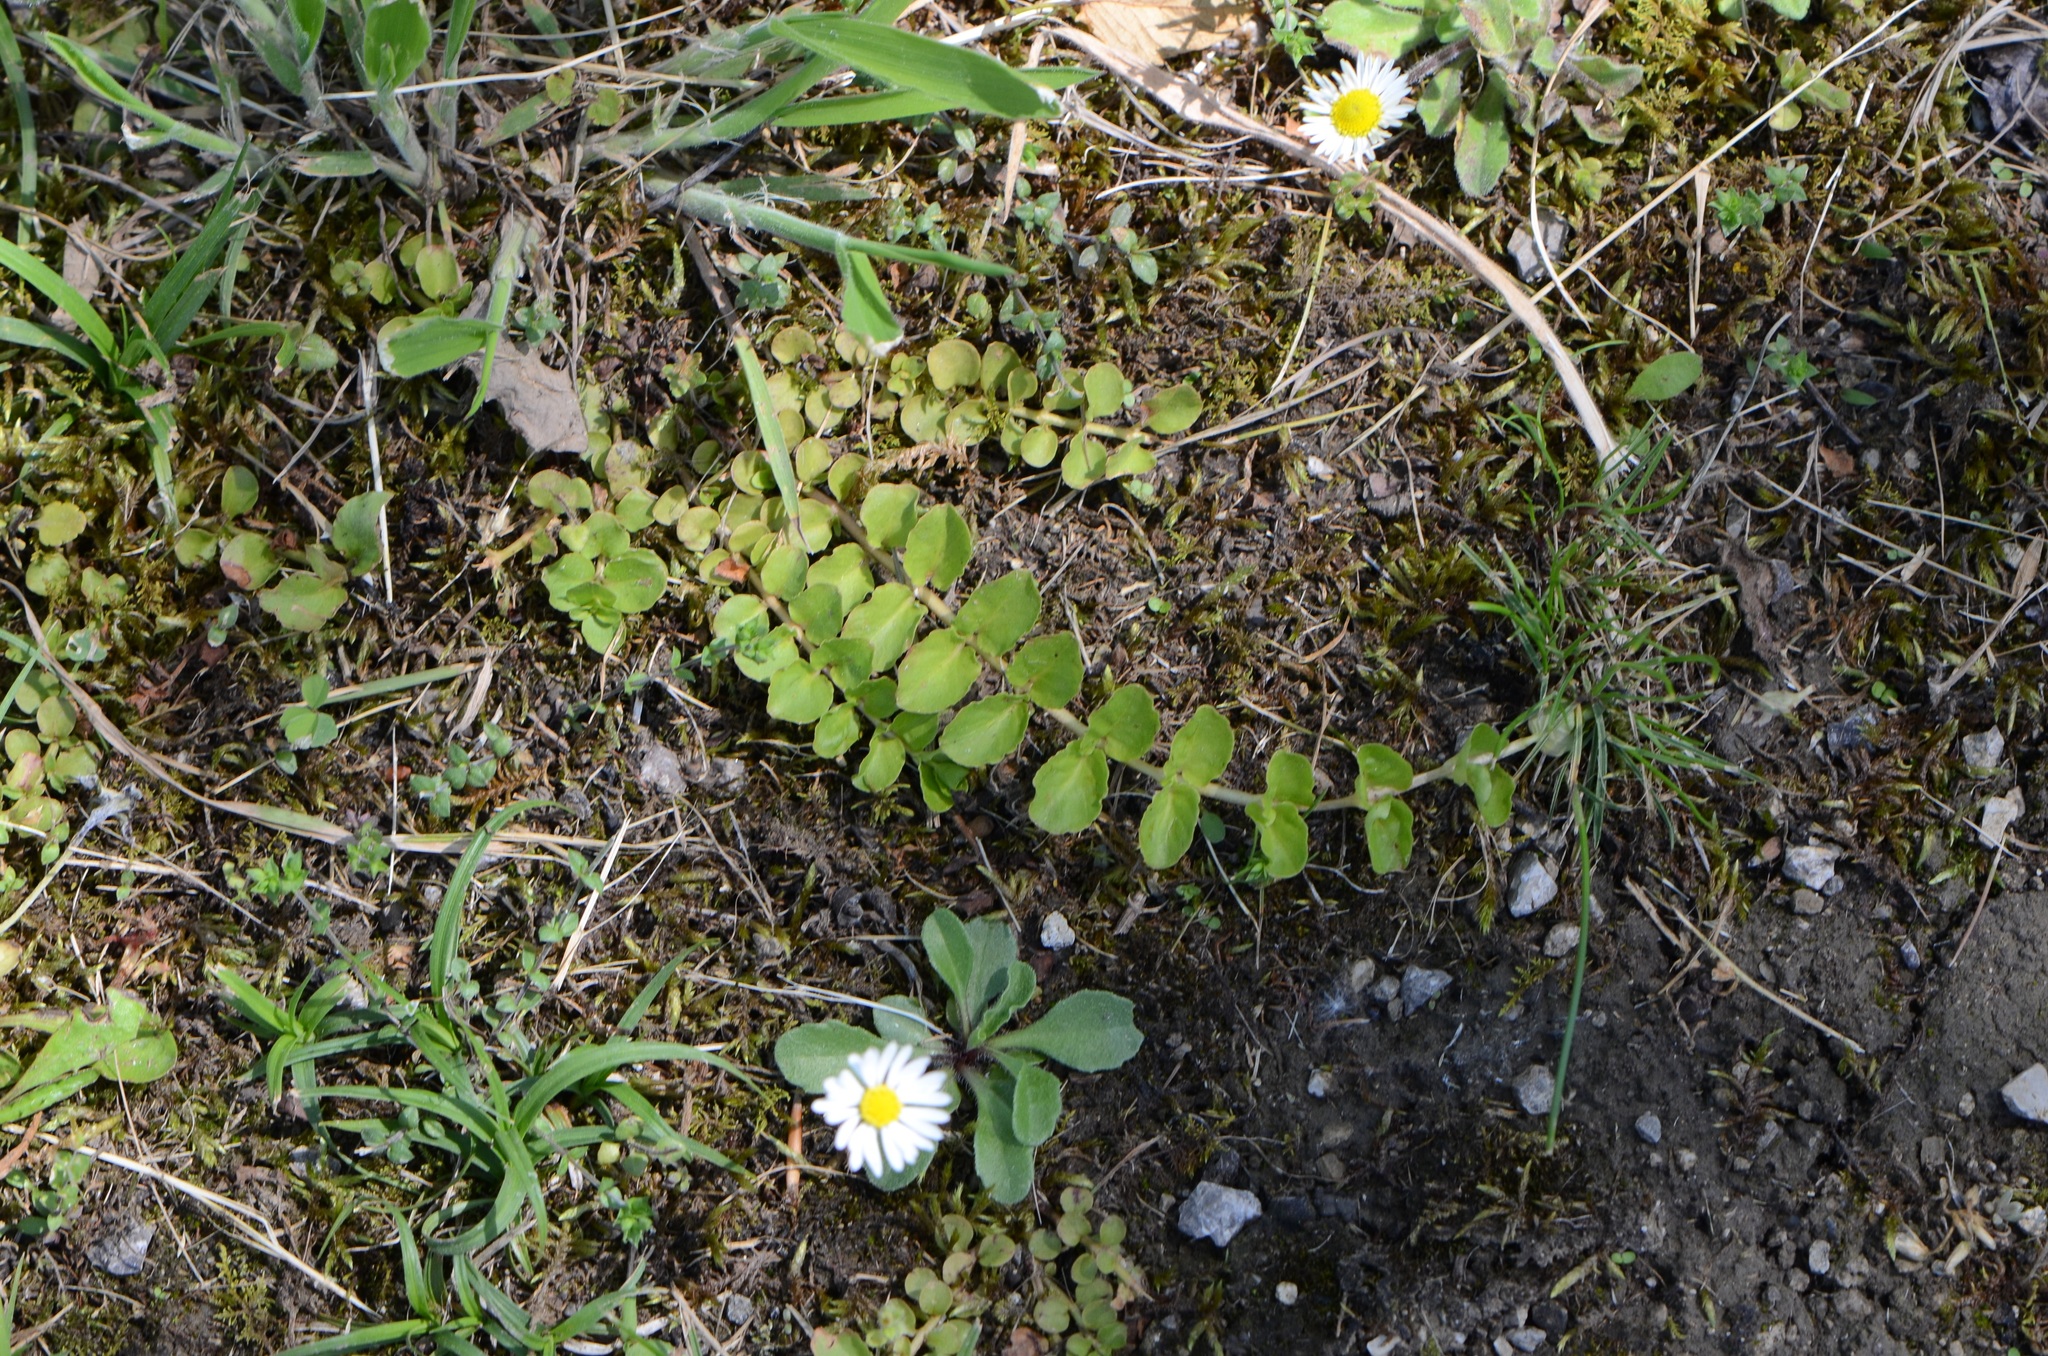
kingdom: Plantae
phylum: Tracheophyta
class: Magnoliopsida
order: Ericales
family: Primulaceae
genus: Lysimachia
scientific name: Lysimachia nummularia
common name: Moneywort
